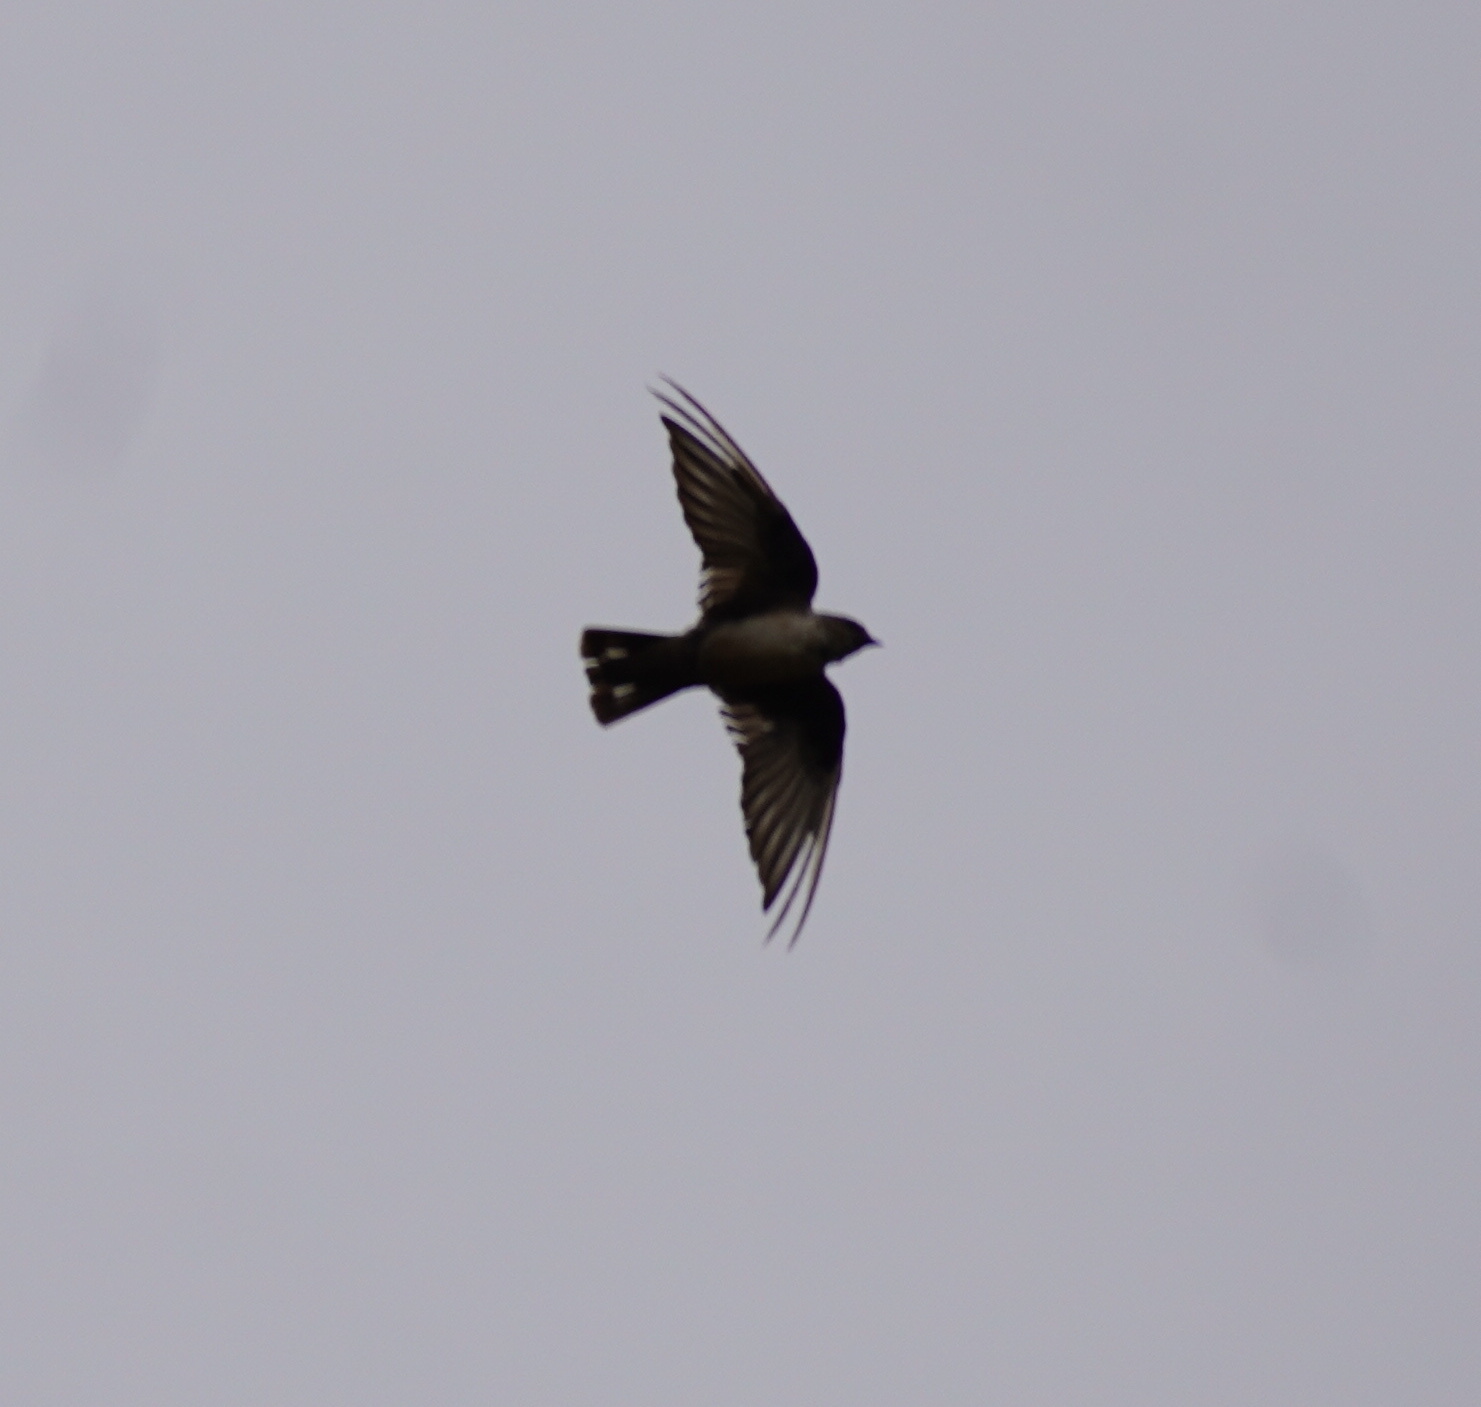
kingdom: Animalia
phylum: Chordata
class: Aves
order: Passeriformes
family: Hirundinidae
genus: Ptyonoprogne
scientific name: Ptyonoprogne rupestris
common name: Eurasian crag martin
